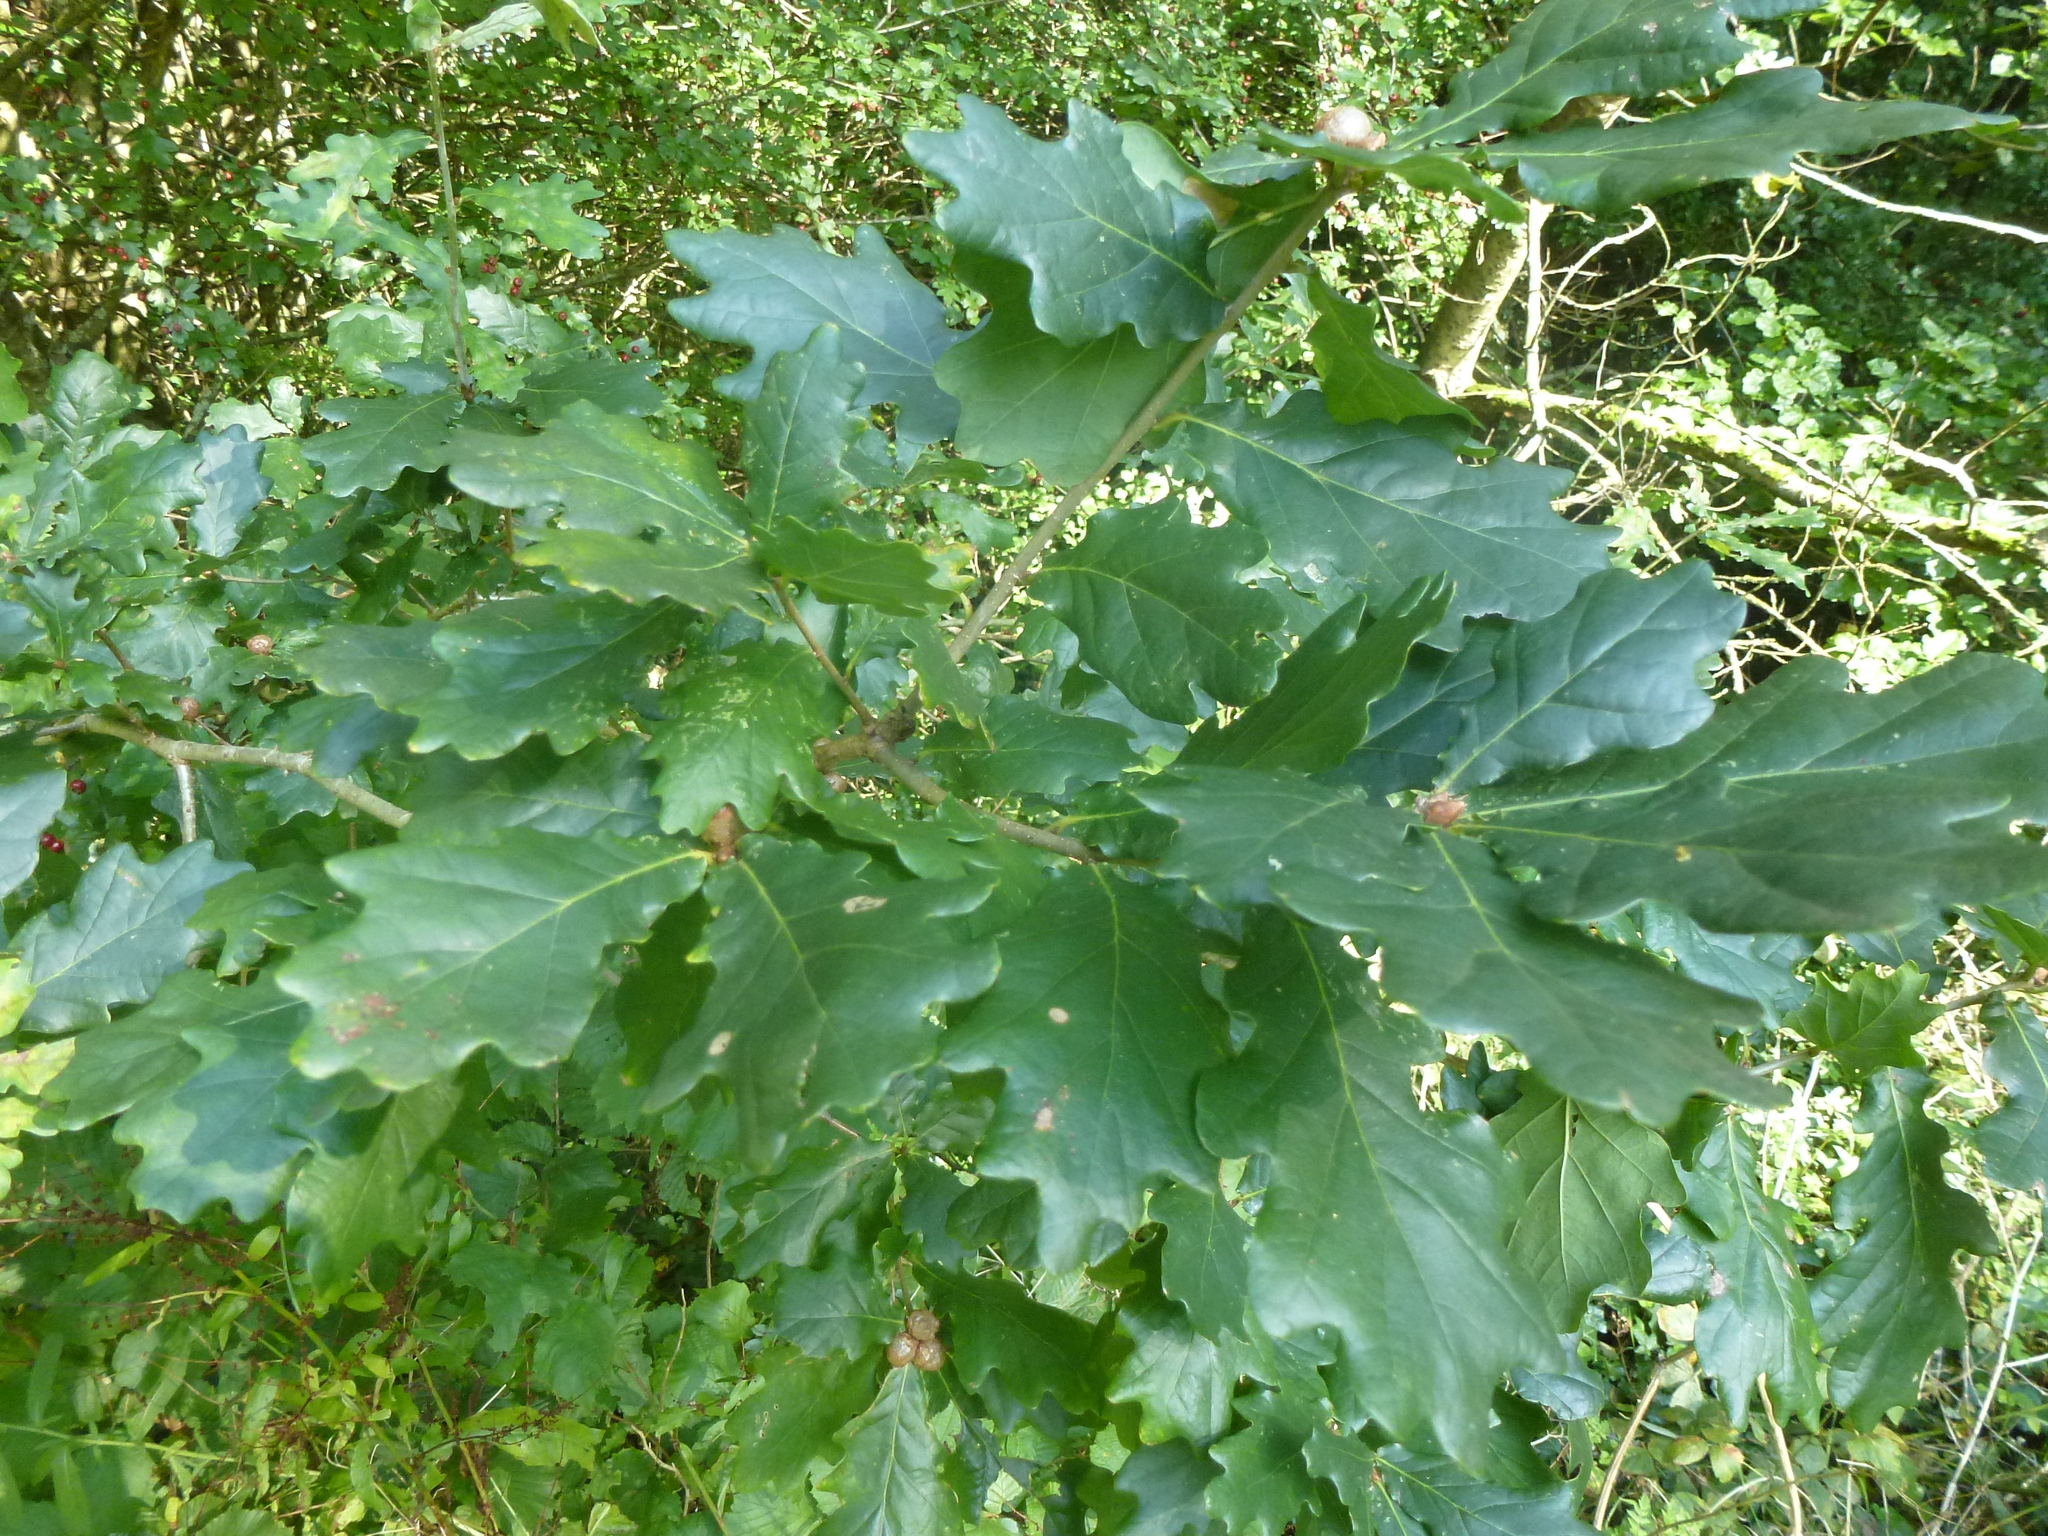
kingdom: Plantae
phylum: Tracheophyta
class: Magnoliopsida
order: Fagales
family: Fagaceae
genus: Quercus
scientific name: Quercus robur
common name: Pedunculate oak
